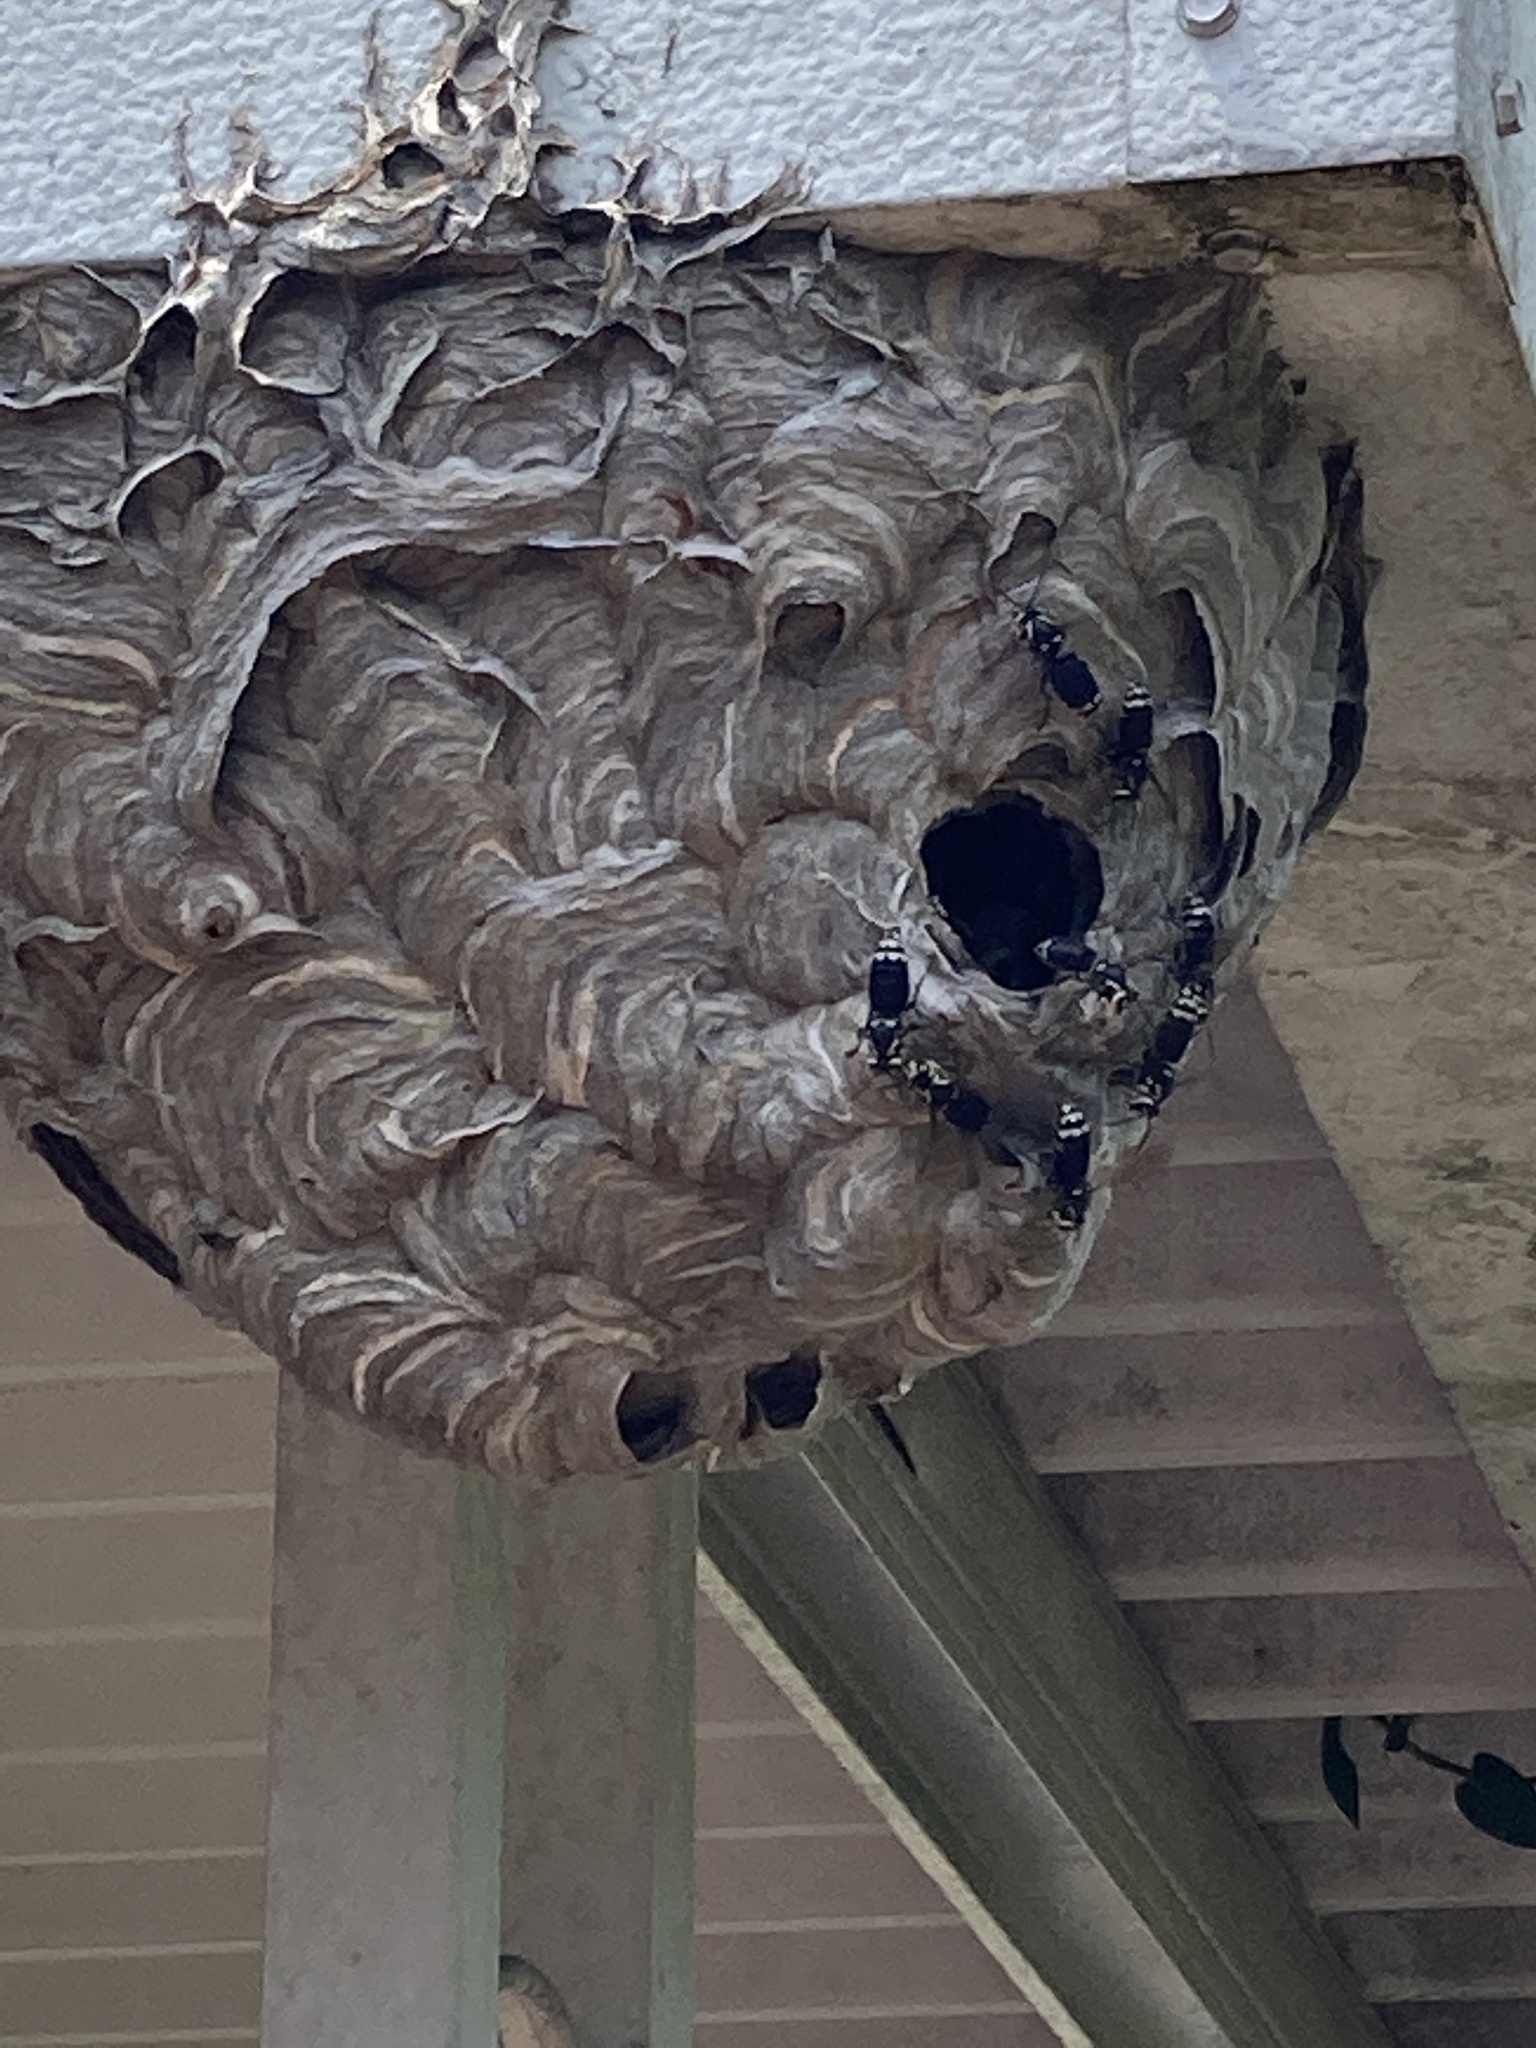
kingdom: Animalia
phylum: Arthropoda
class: Insecta
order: Hymenoptera
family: Vespidae
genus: Dolichovespula
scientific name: Dolichovespula maculata
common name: Bald-faced hornet
